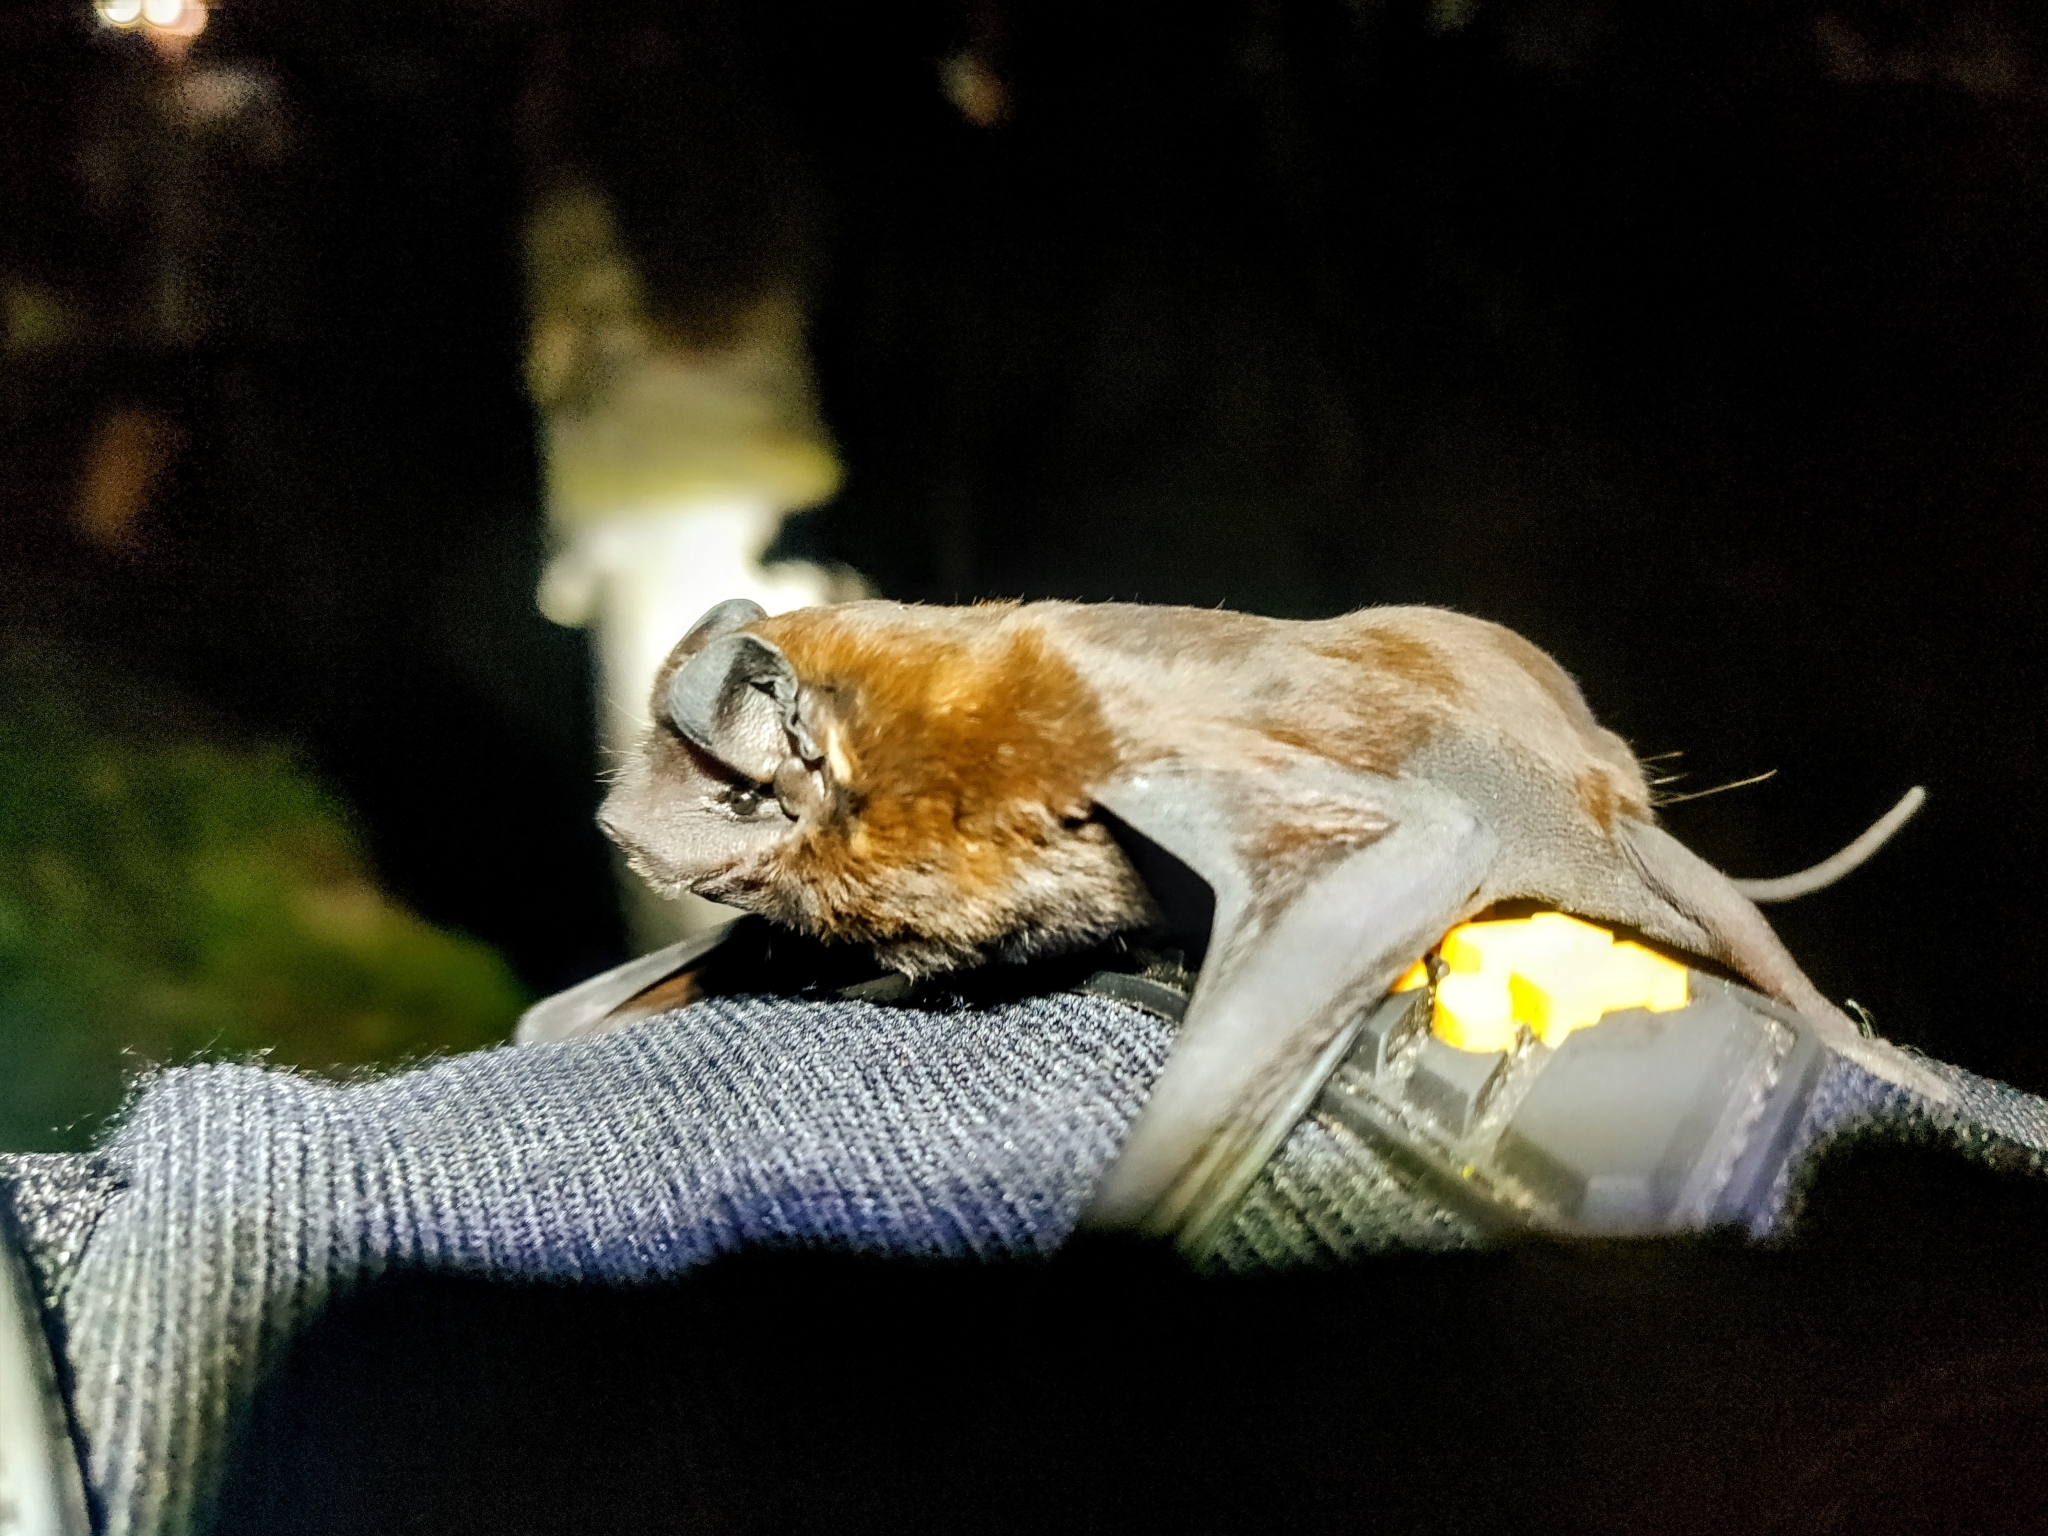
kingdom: Animalia
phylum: Chordata
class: Mammalia
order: Chiroptera
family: Molossidae
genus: Molossus
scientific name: Molossus molossus
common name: Pallas's mastiff bat
